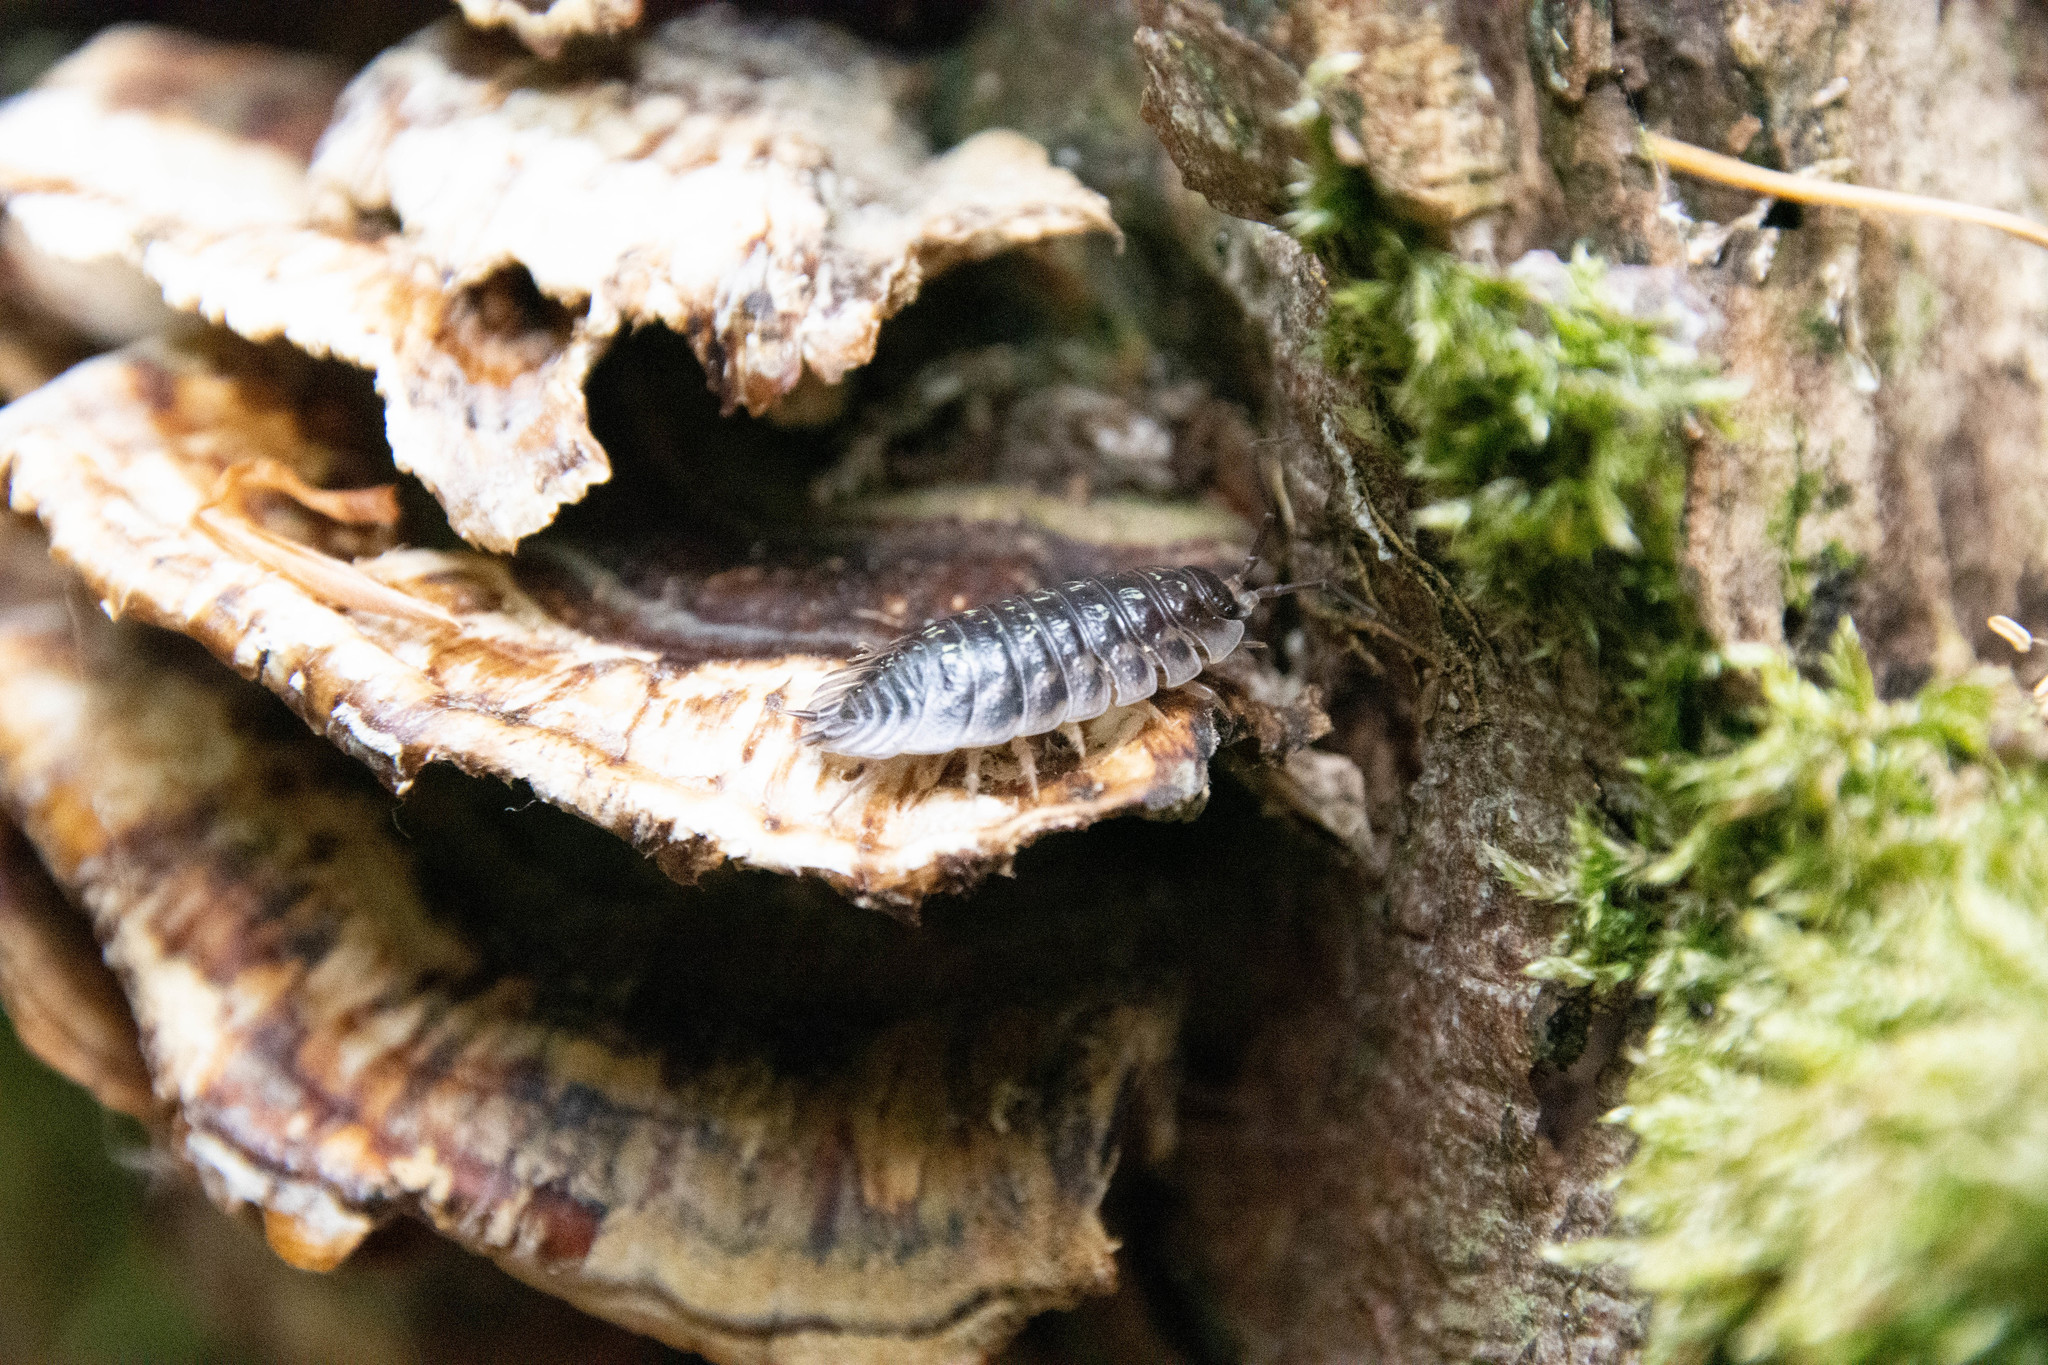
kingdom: Animalia
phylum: Arthropoda
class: Malacostraca
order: Isopoda
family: Oniscidae
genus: Oniscus
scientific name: Oniscus asellus
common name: Common shiny woodlouse
